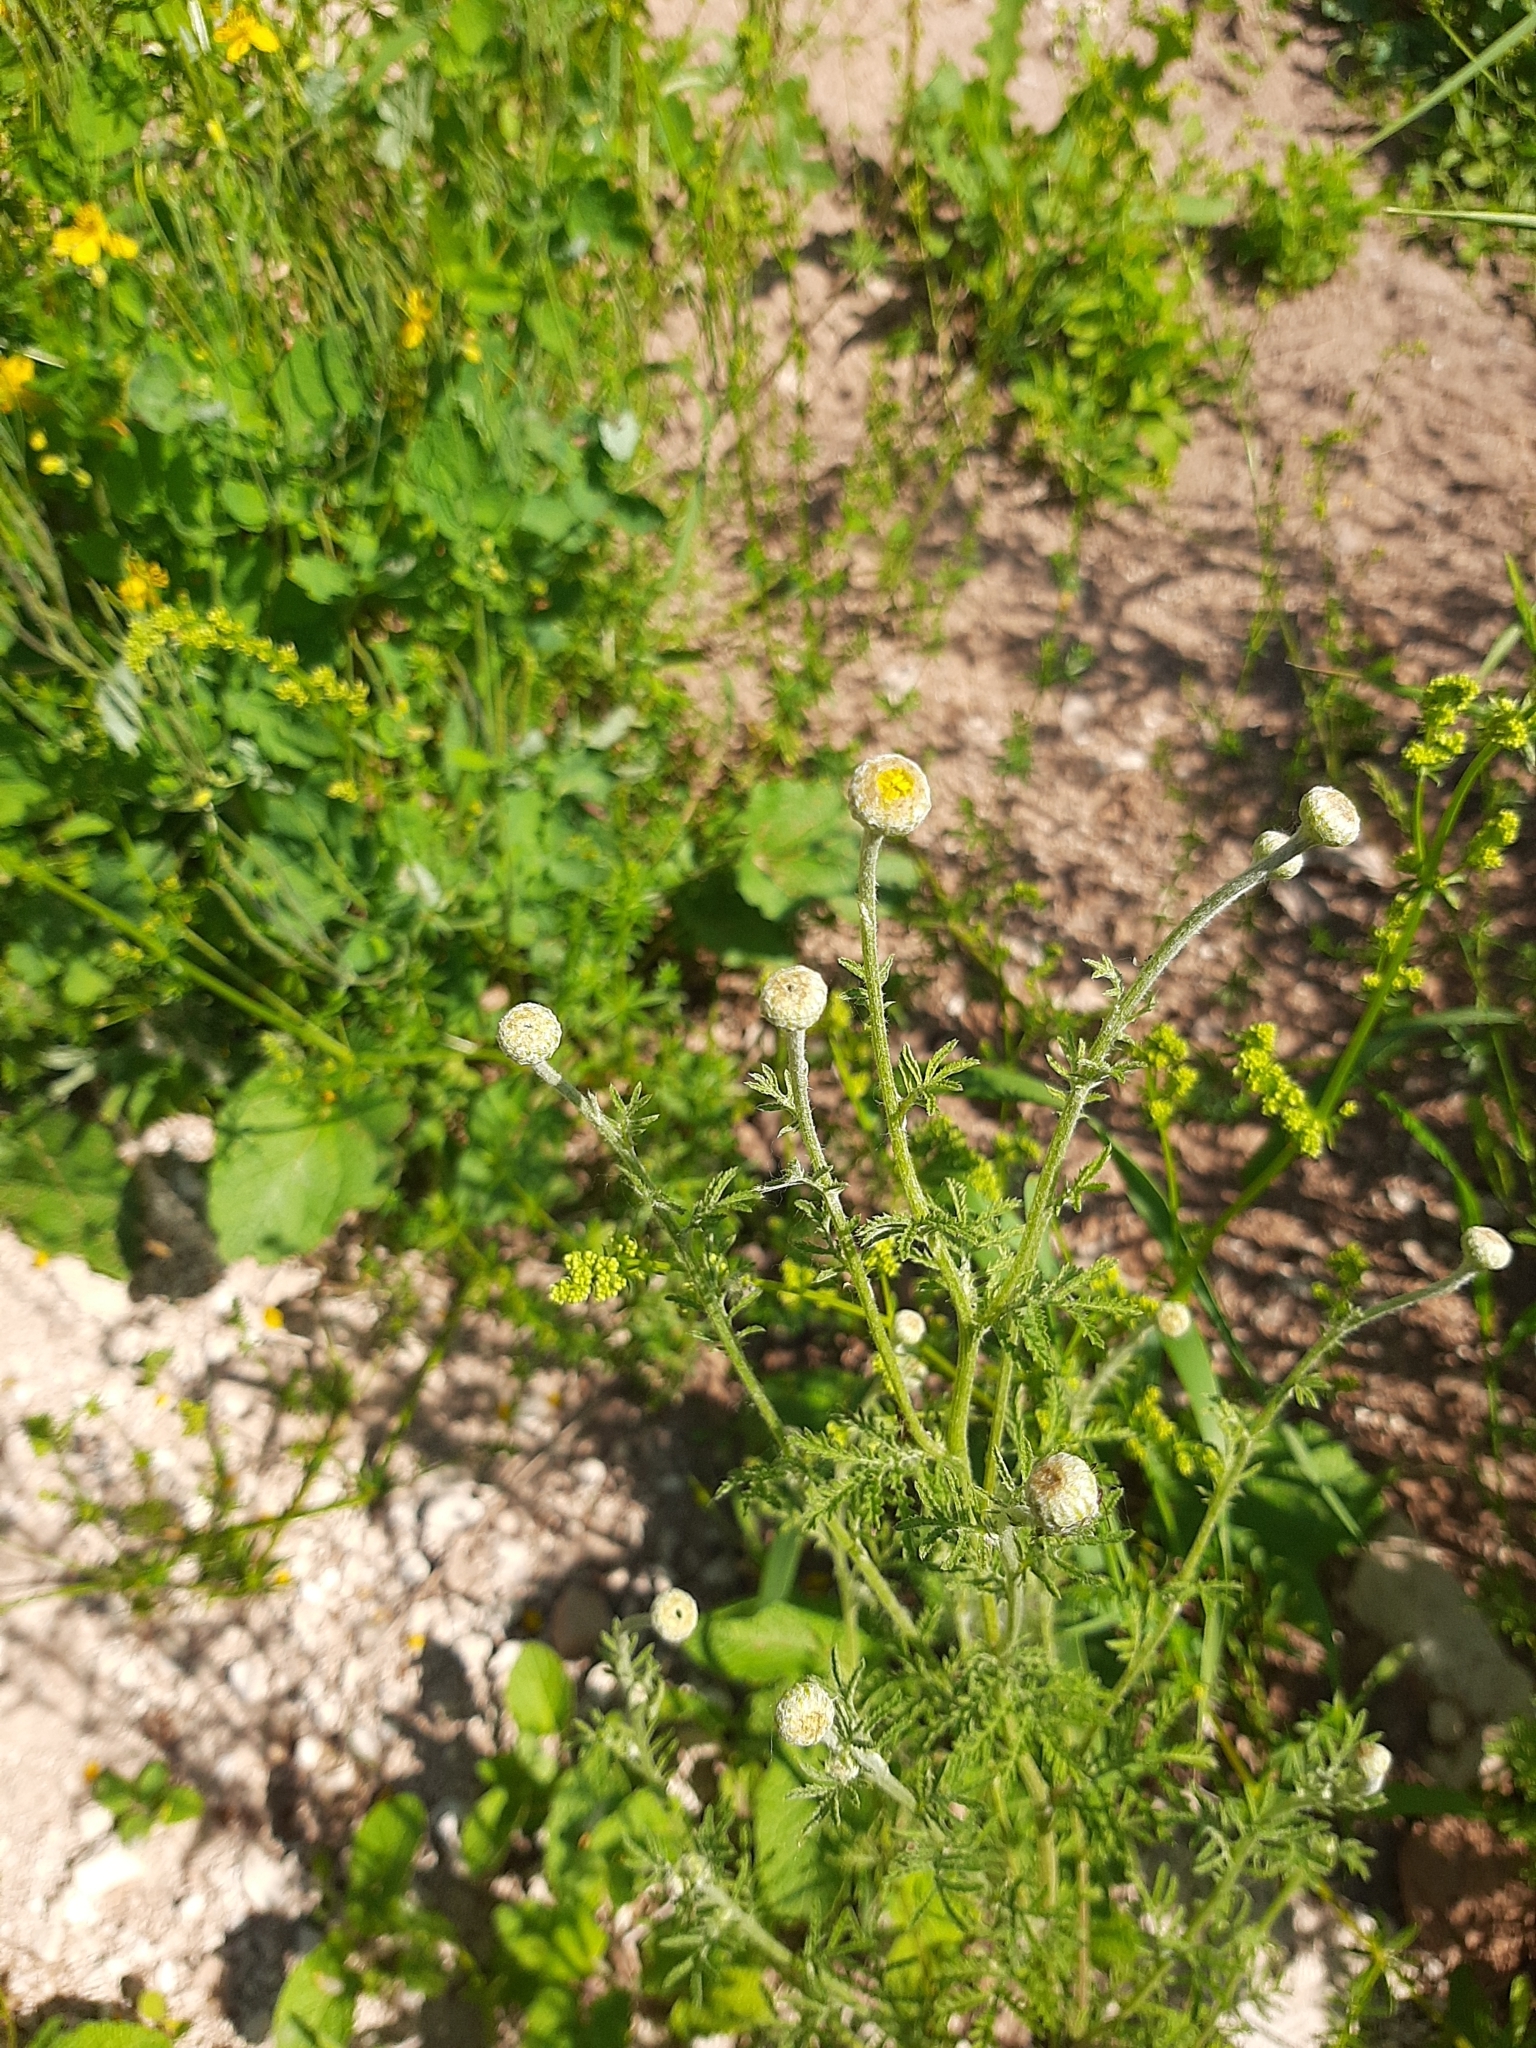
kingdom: Plantae
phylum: Tracheophyta
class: Magnoliopsida
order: Asterales
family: Asteraceae
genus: Cota
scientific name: Cota tinctoria
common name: Golden chamomile
